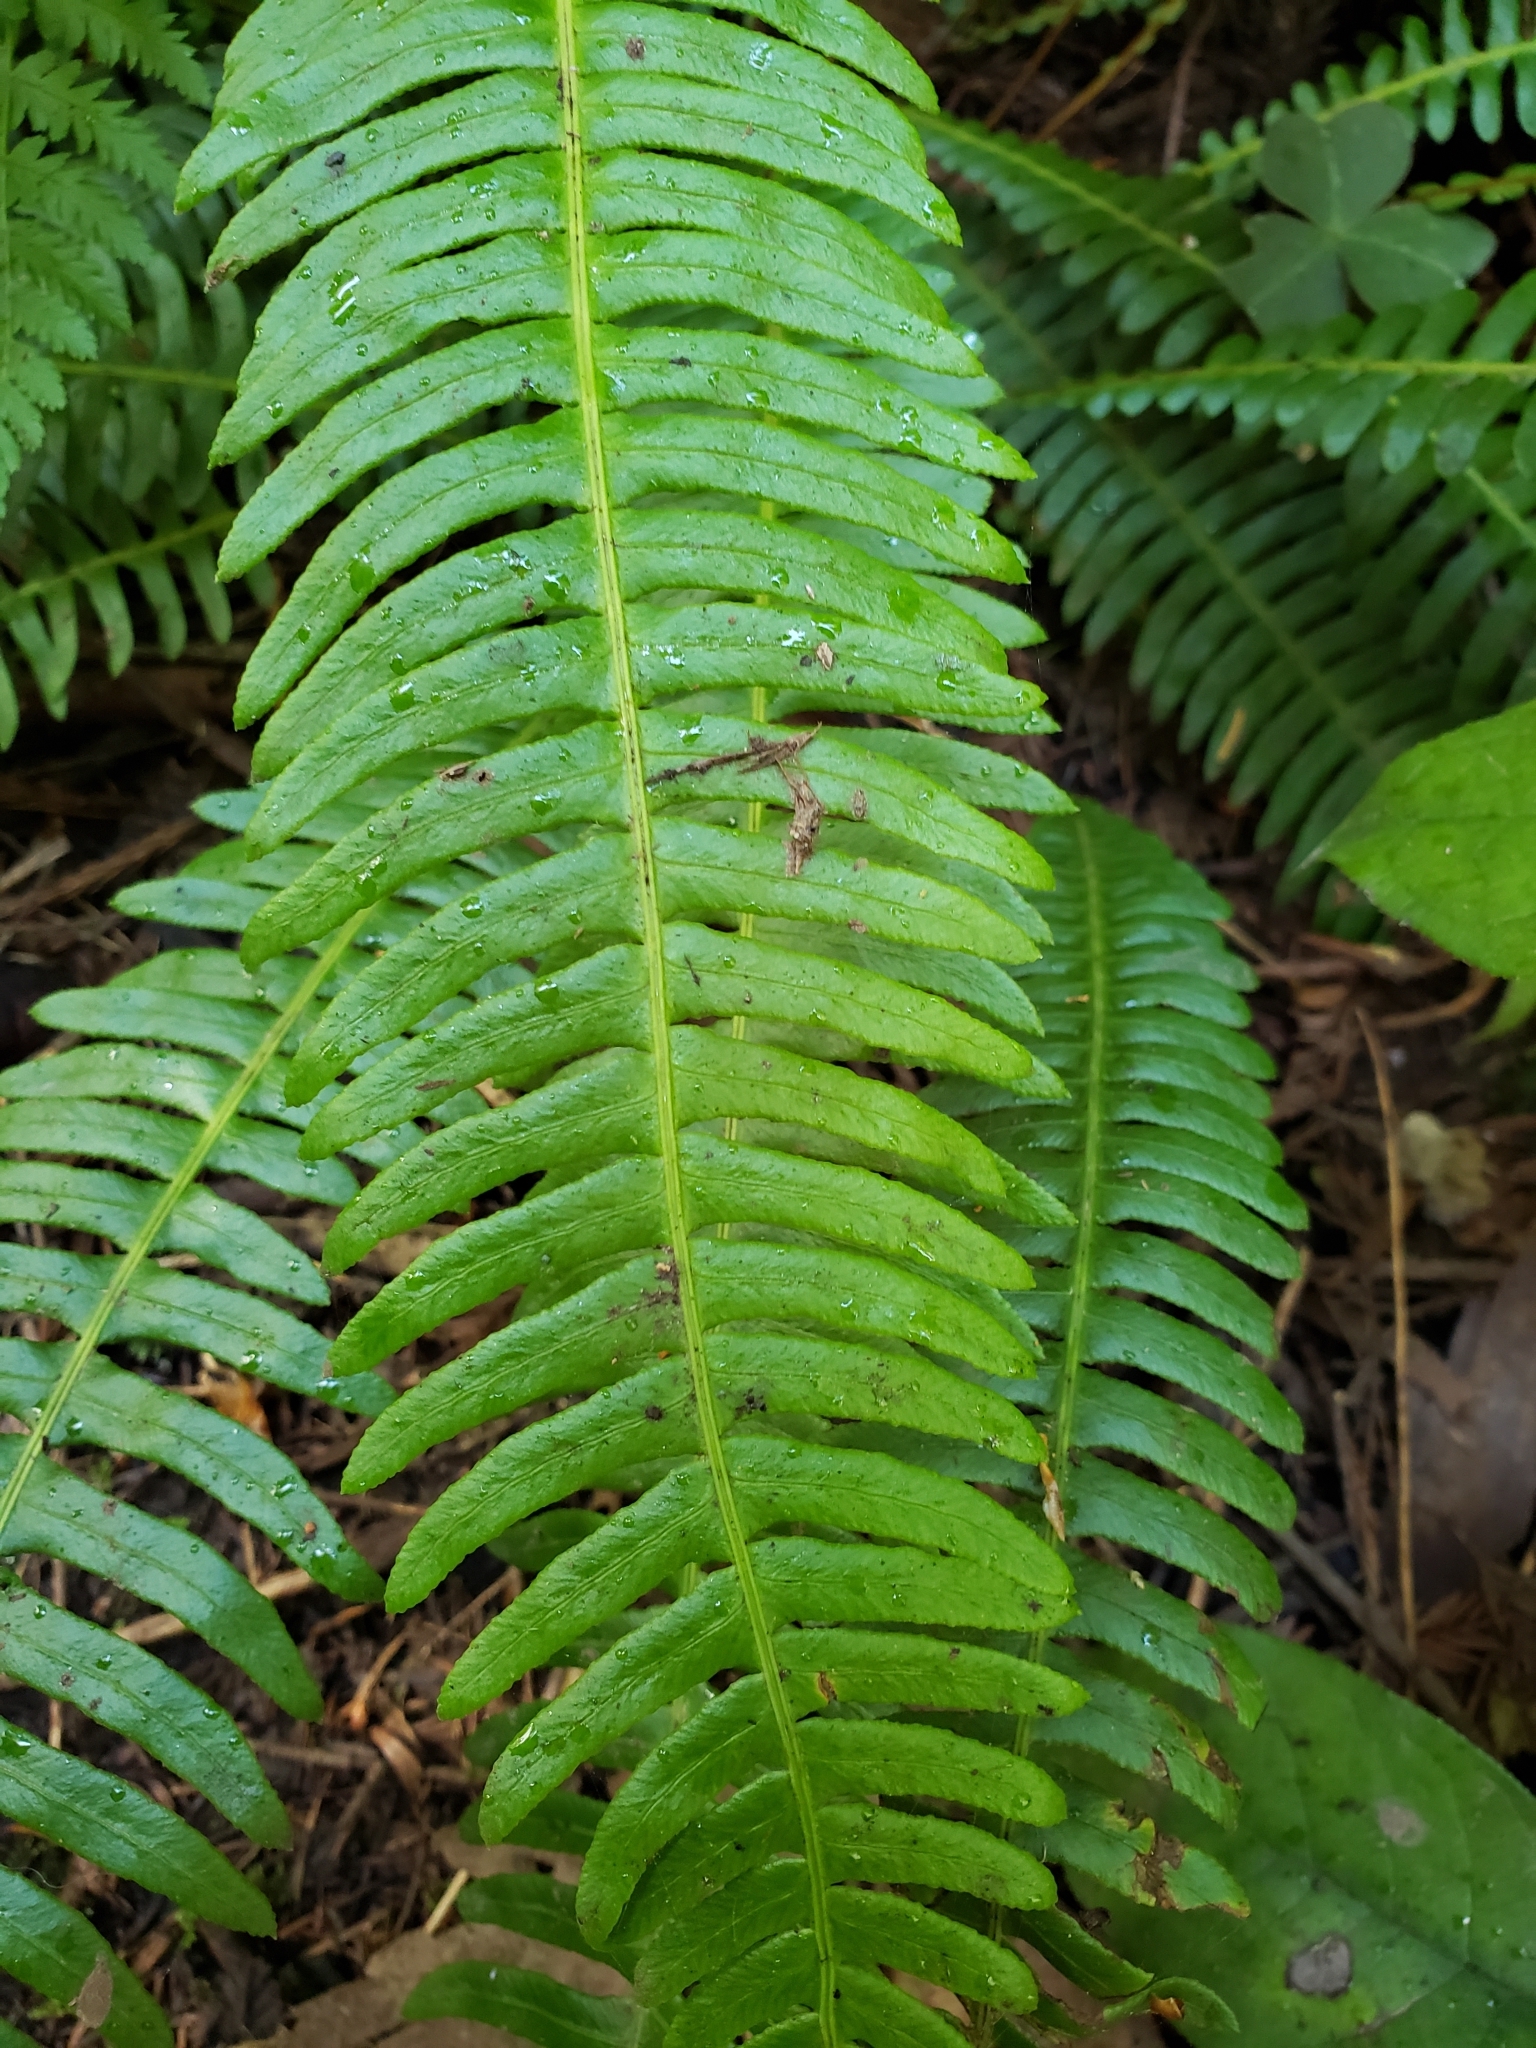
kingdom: Plantae
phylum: Tracheophyta
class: Polypodiopsida
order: Polypodiales
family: Blechnaceae
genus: Struthiopteris
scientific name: Struthiopteris spicant
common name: Deer fern
